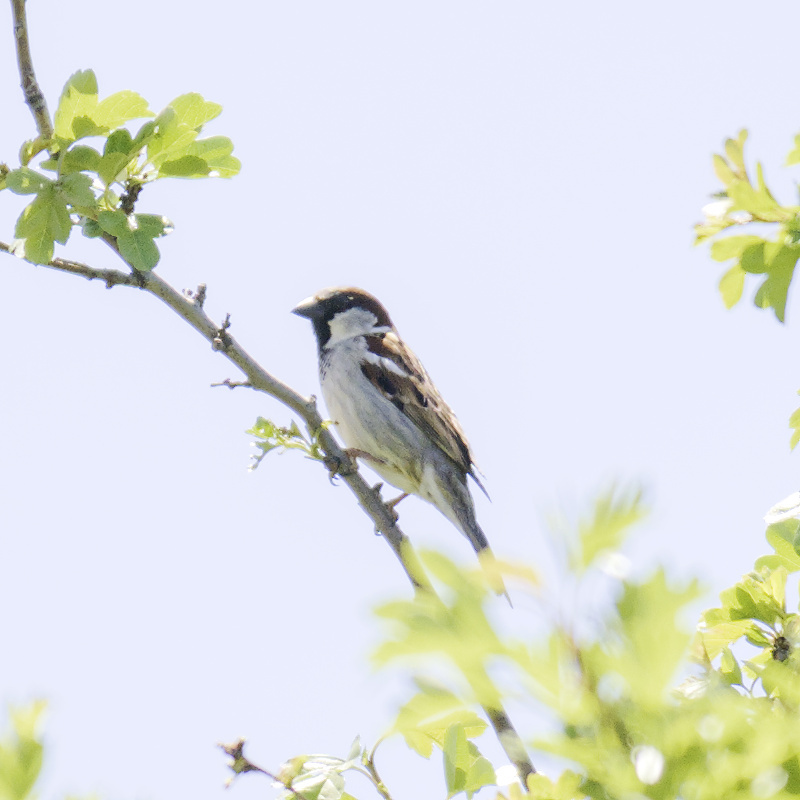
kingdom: Animalia
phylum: Chordata
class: Aves
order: Passeriformes
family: Passeridae
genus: Passer
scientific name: Passer domesticus
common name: House sparrow
